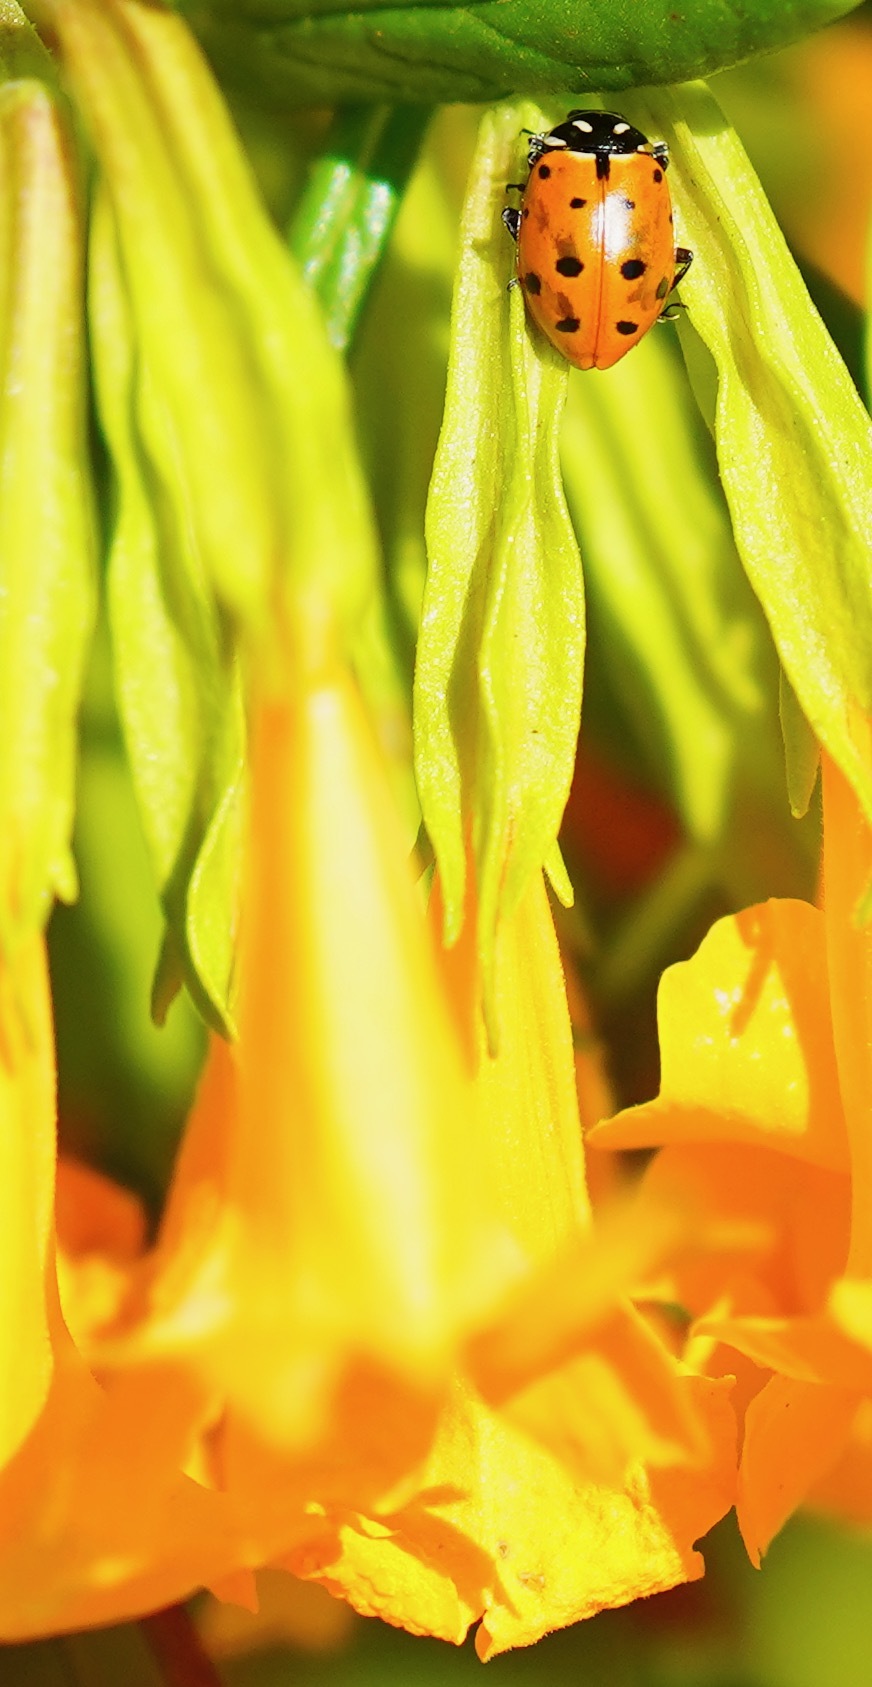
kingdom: Animalia
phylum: Arthropoda
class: Insecta
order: Coleoptera
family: Coccinellidae
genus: Hippodamia
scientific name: Hippodamia convergens
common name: Convergent lady beetle
